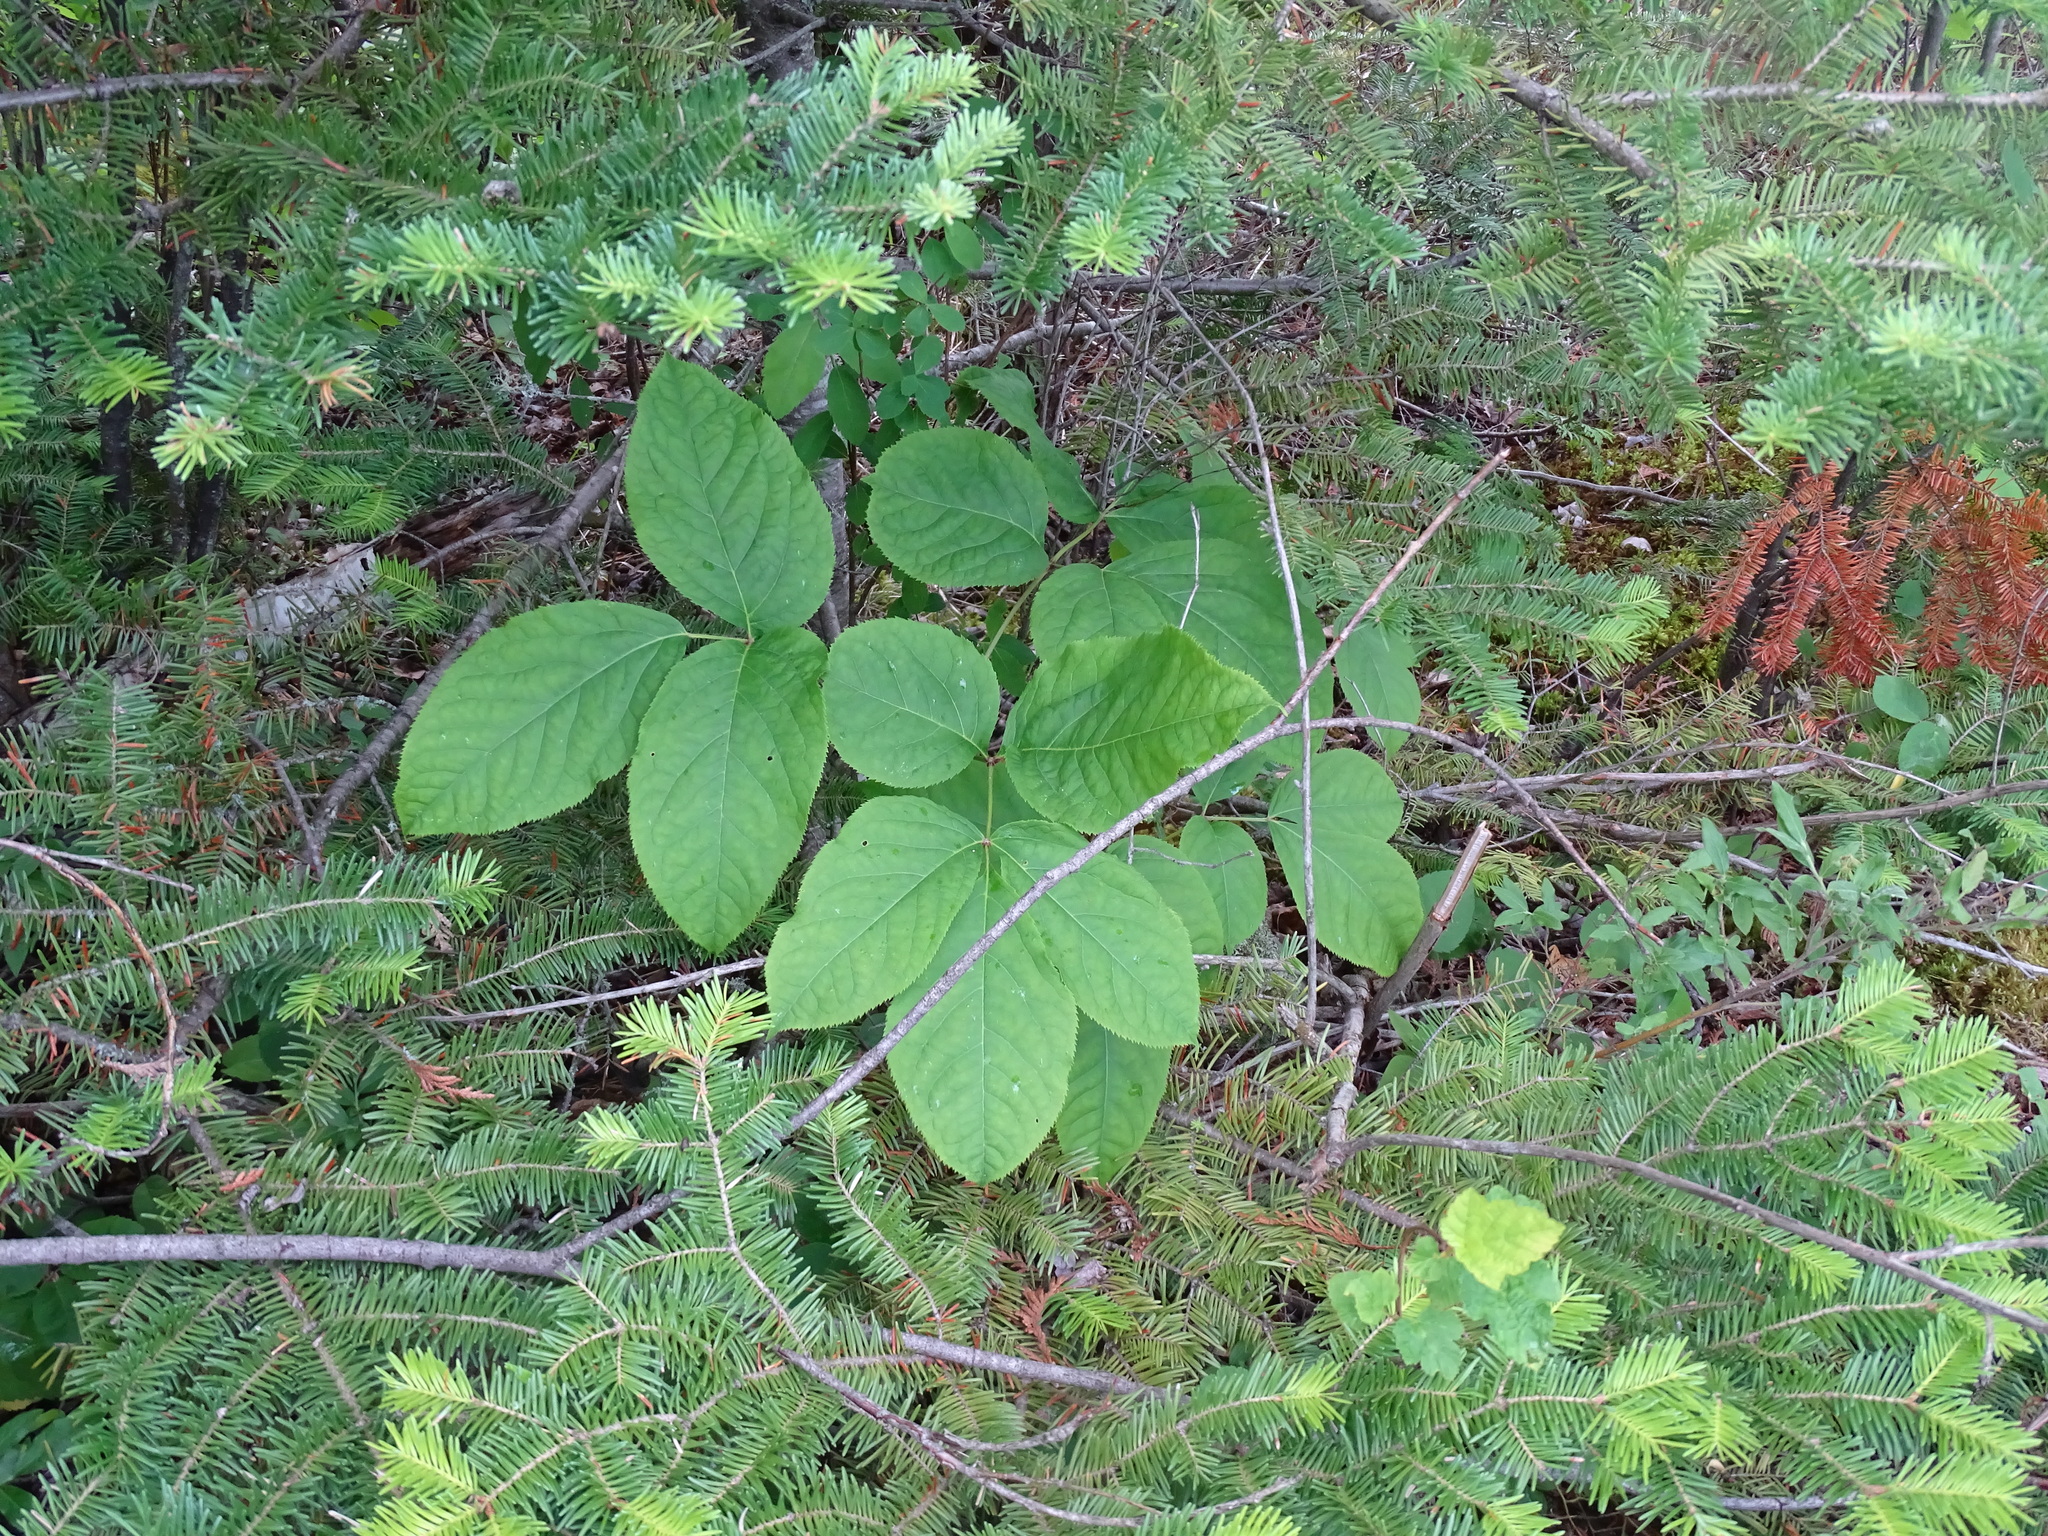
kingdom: Plantae
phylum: Tracheophyta
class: Magnoliopsida
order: Apiales
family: Araliaceae
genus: Aralia
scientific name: Aralia nudicaulis
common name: Wild sarsaparilla
